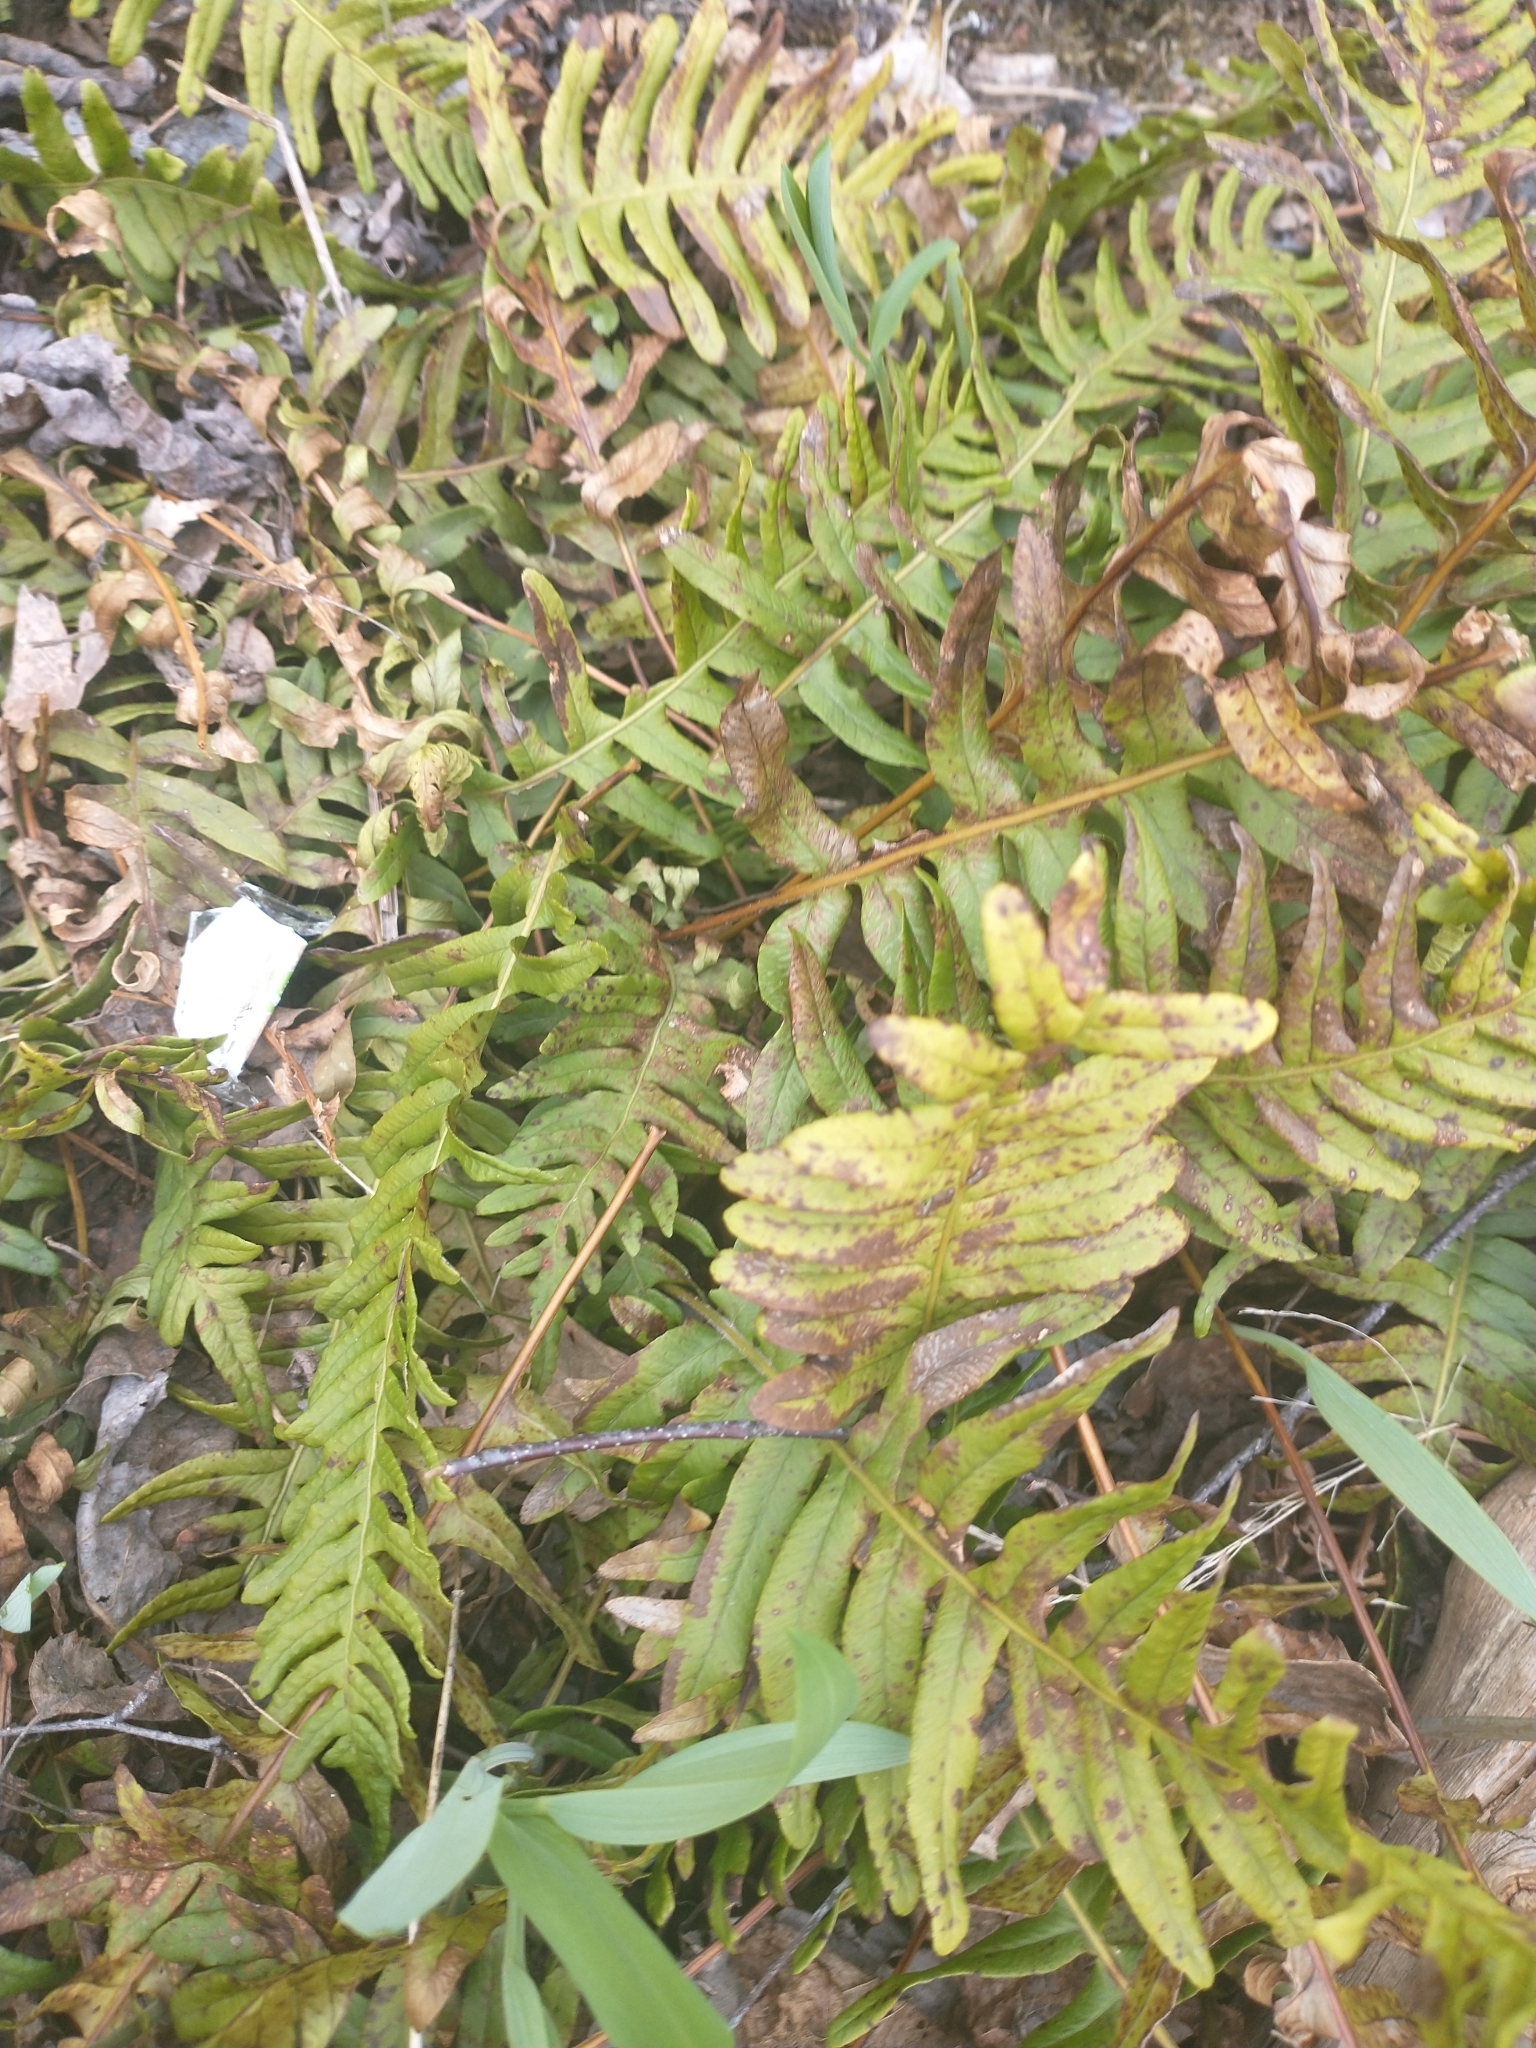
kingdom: Plantae
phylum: Tracheophyta
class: Polypodiopsida
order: Polypodiales
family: Polypodiaceae
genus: Polypodium
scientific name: Polypodium vulgare
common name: Common polypody
